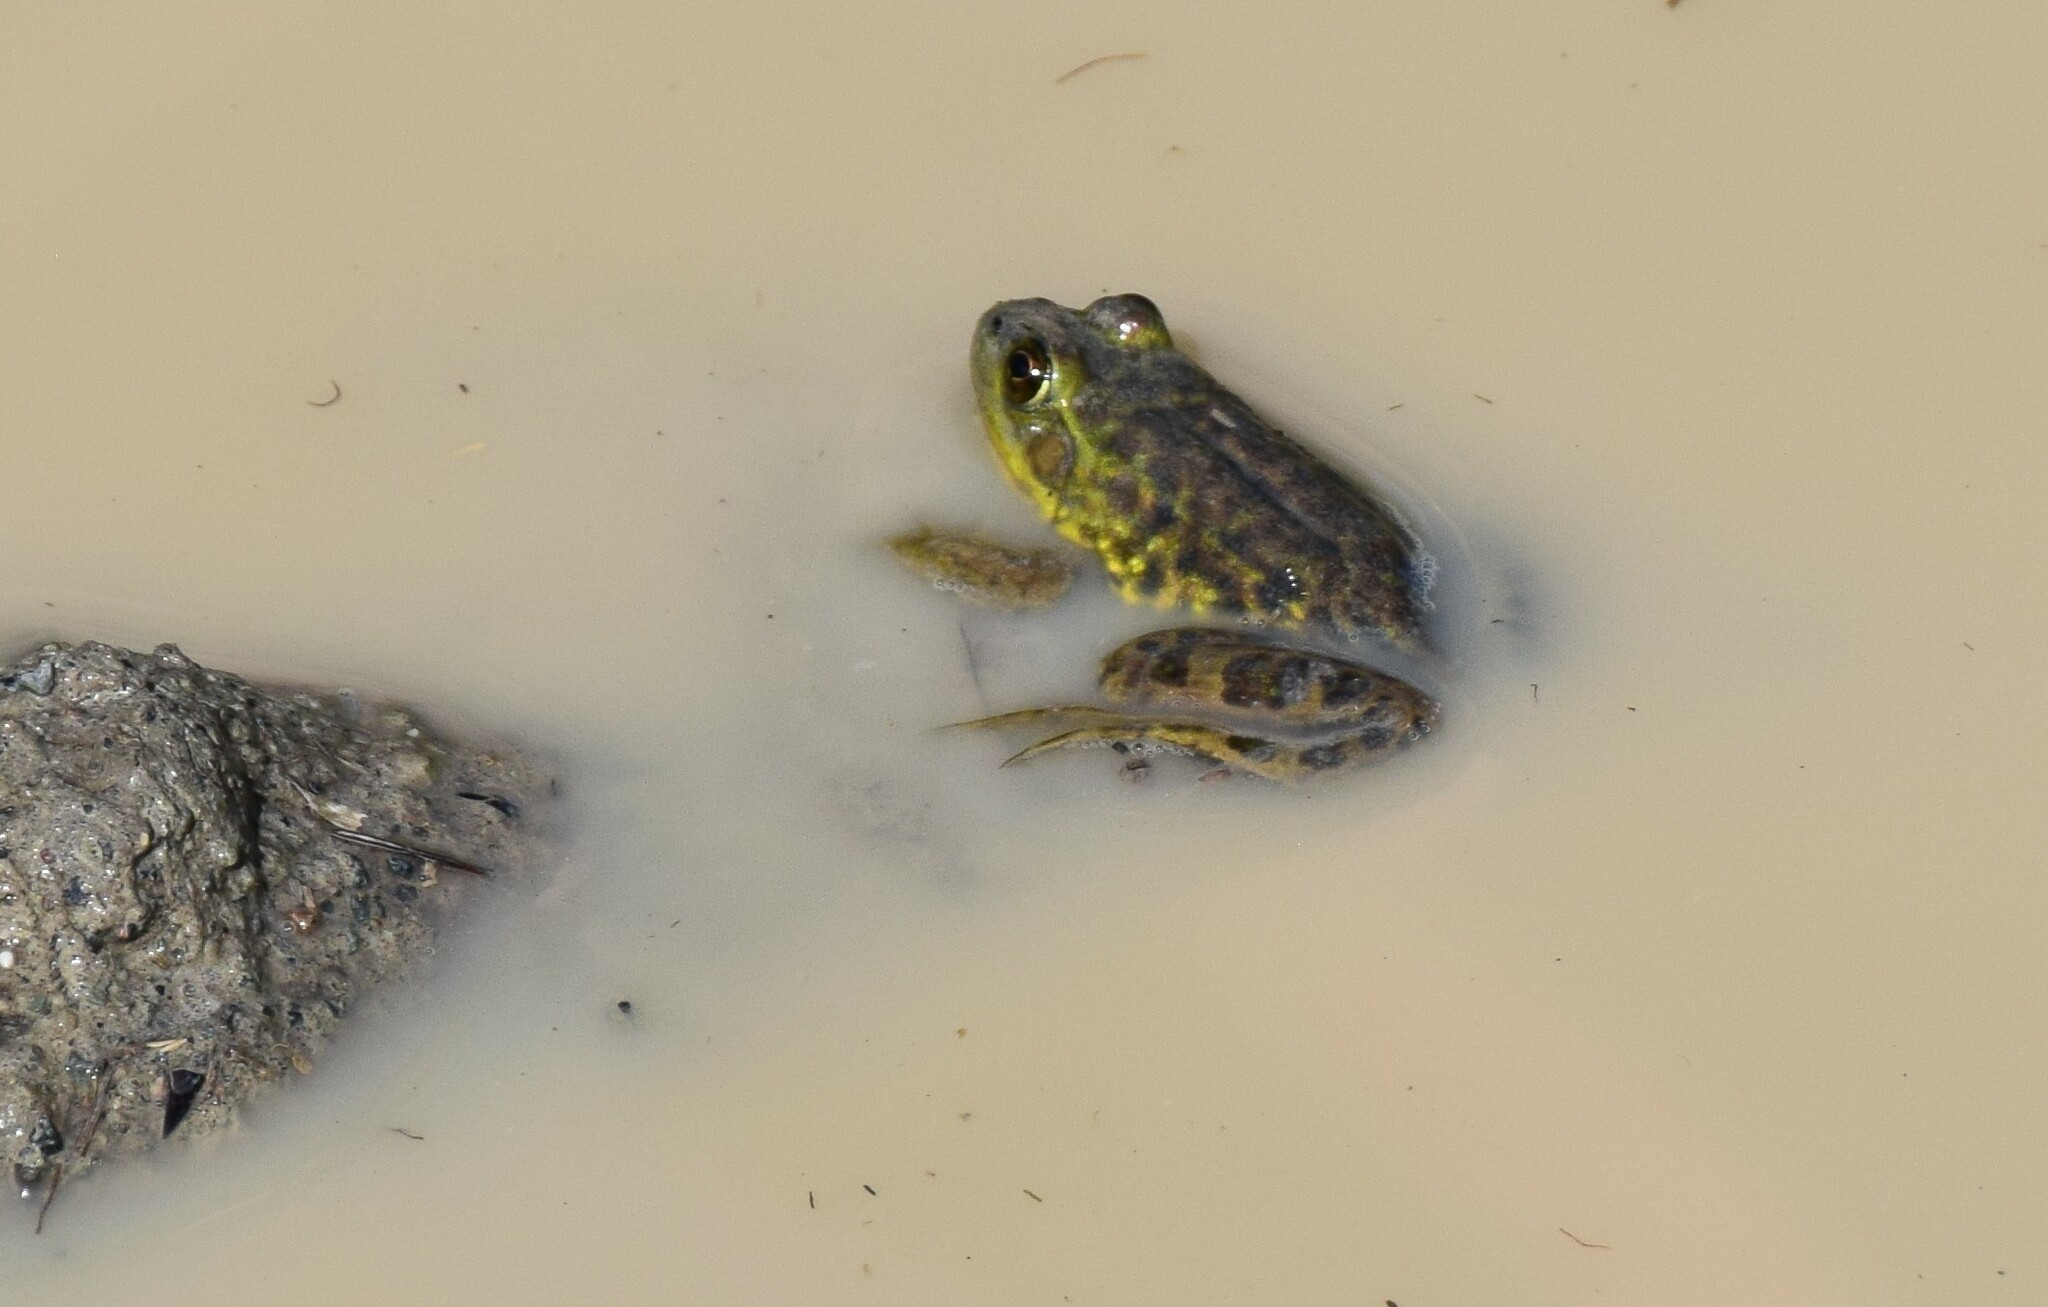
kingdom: Animalia
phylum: Chordata
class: Amphibia
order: Anura
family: Ranidae
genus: Lithobates
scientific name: Lithobates septentrionalis
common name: Mink frog
